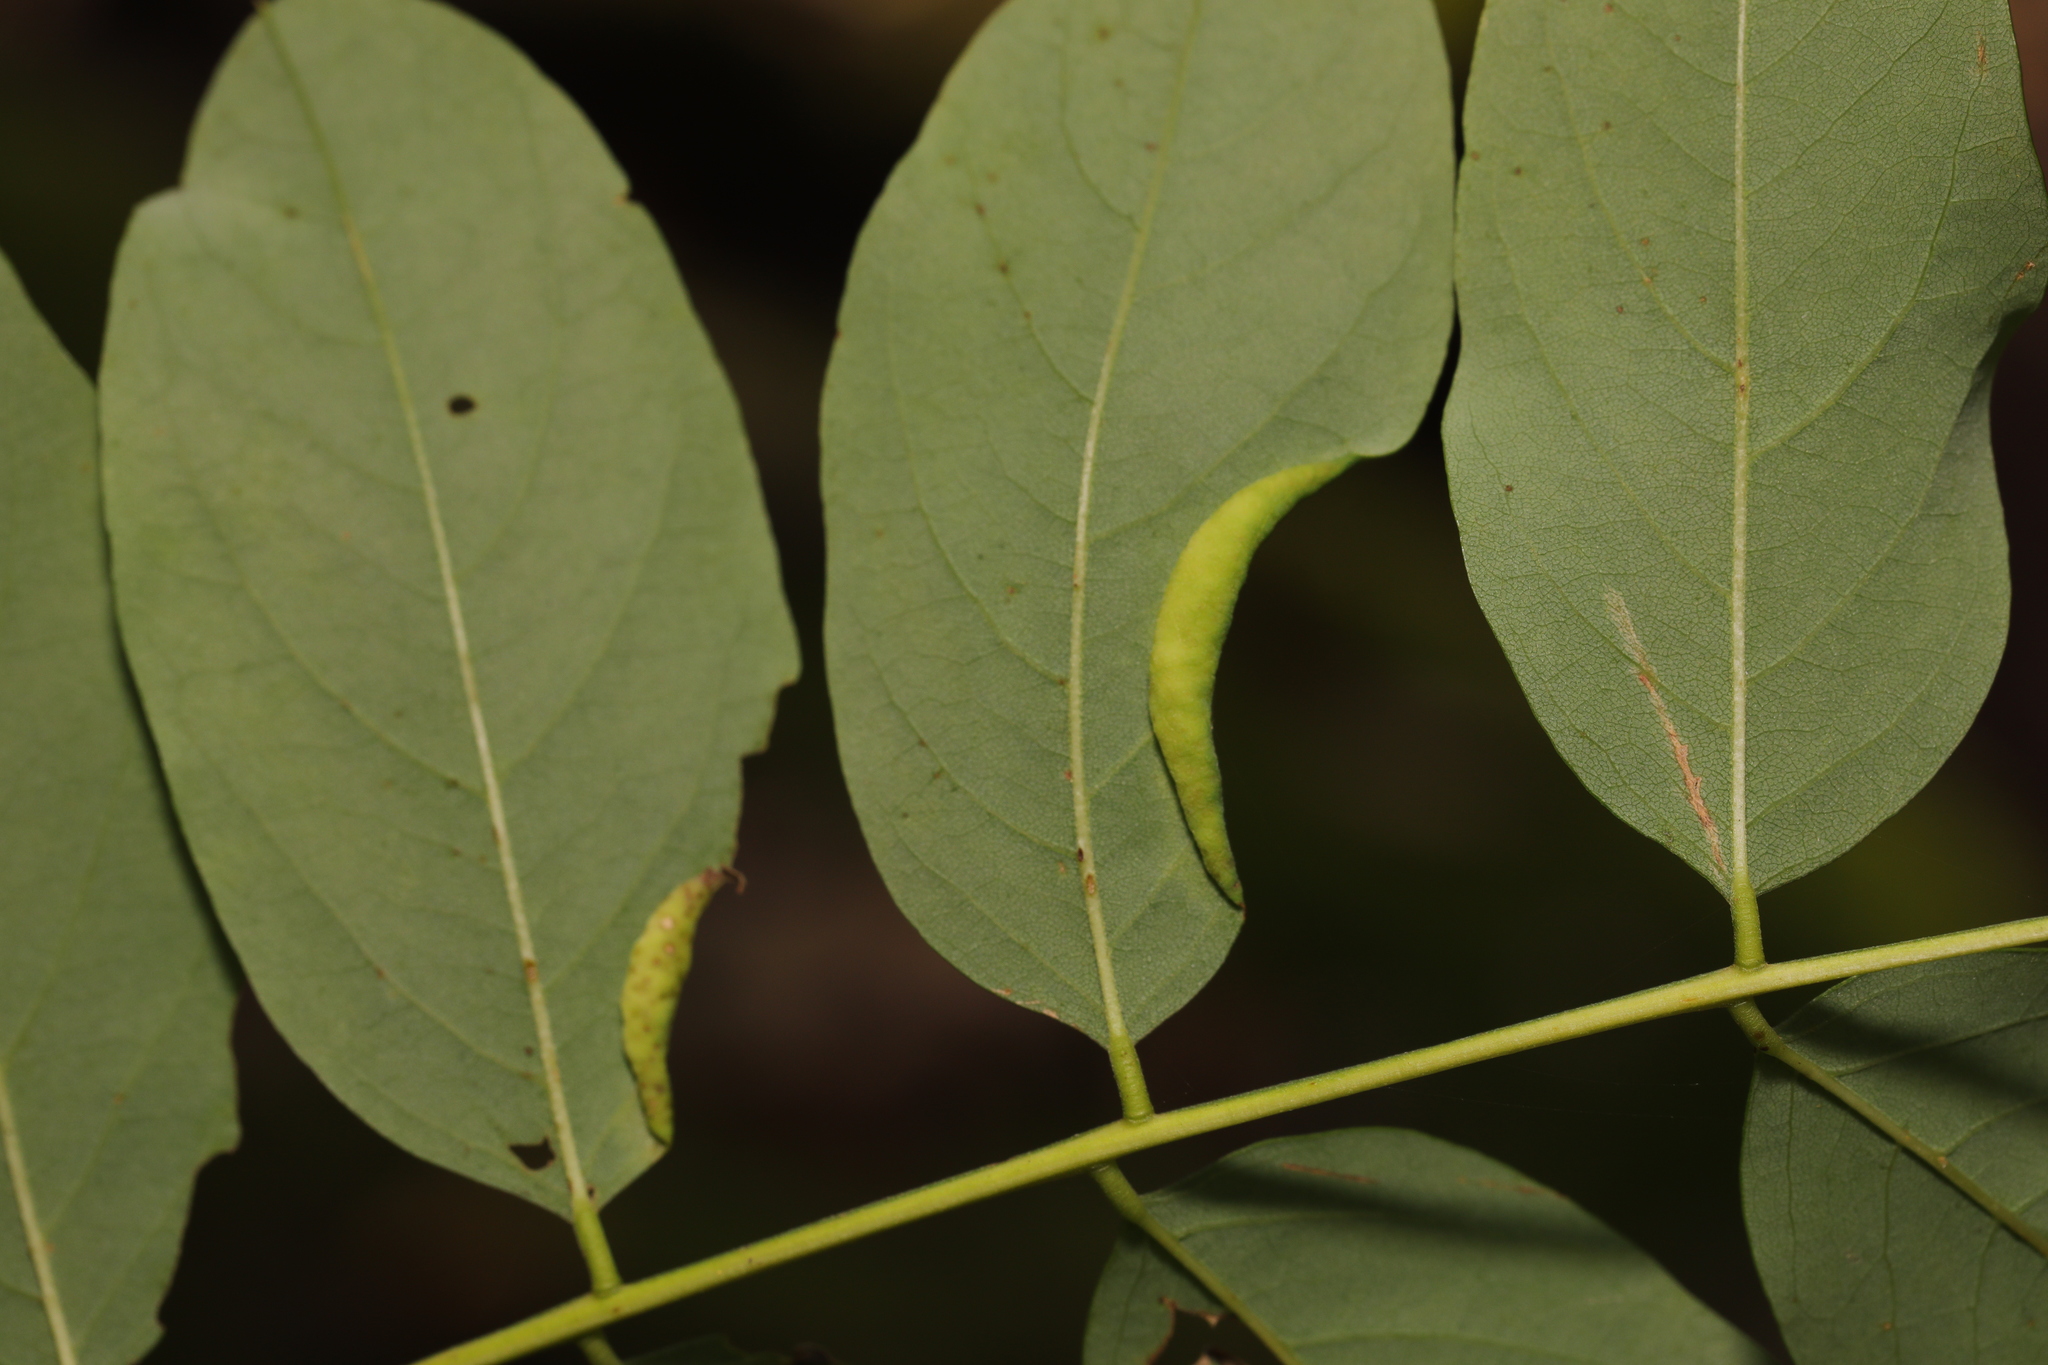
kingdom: Animalia
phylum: Arthropoda
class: Insecta
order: Diptera
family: Cecidomyiidae
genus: Obolodiplosis
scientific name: Obolodiplosis robiniae
